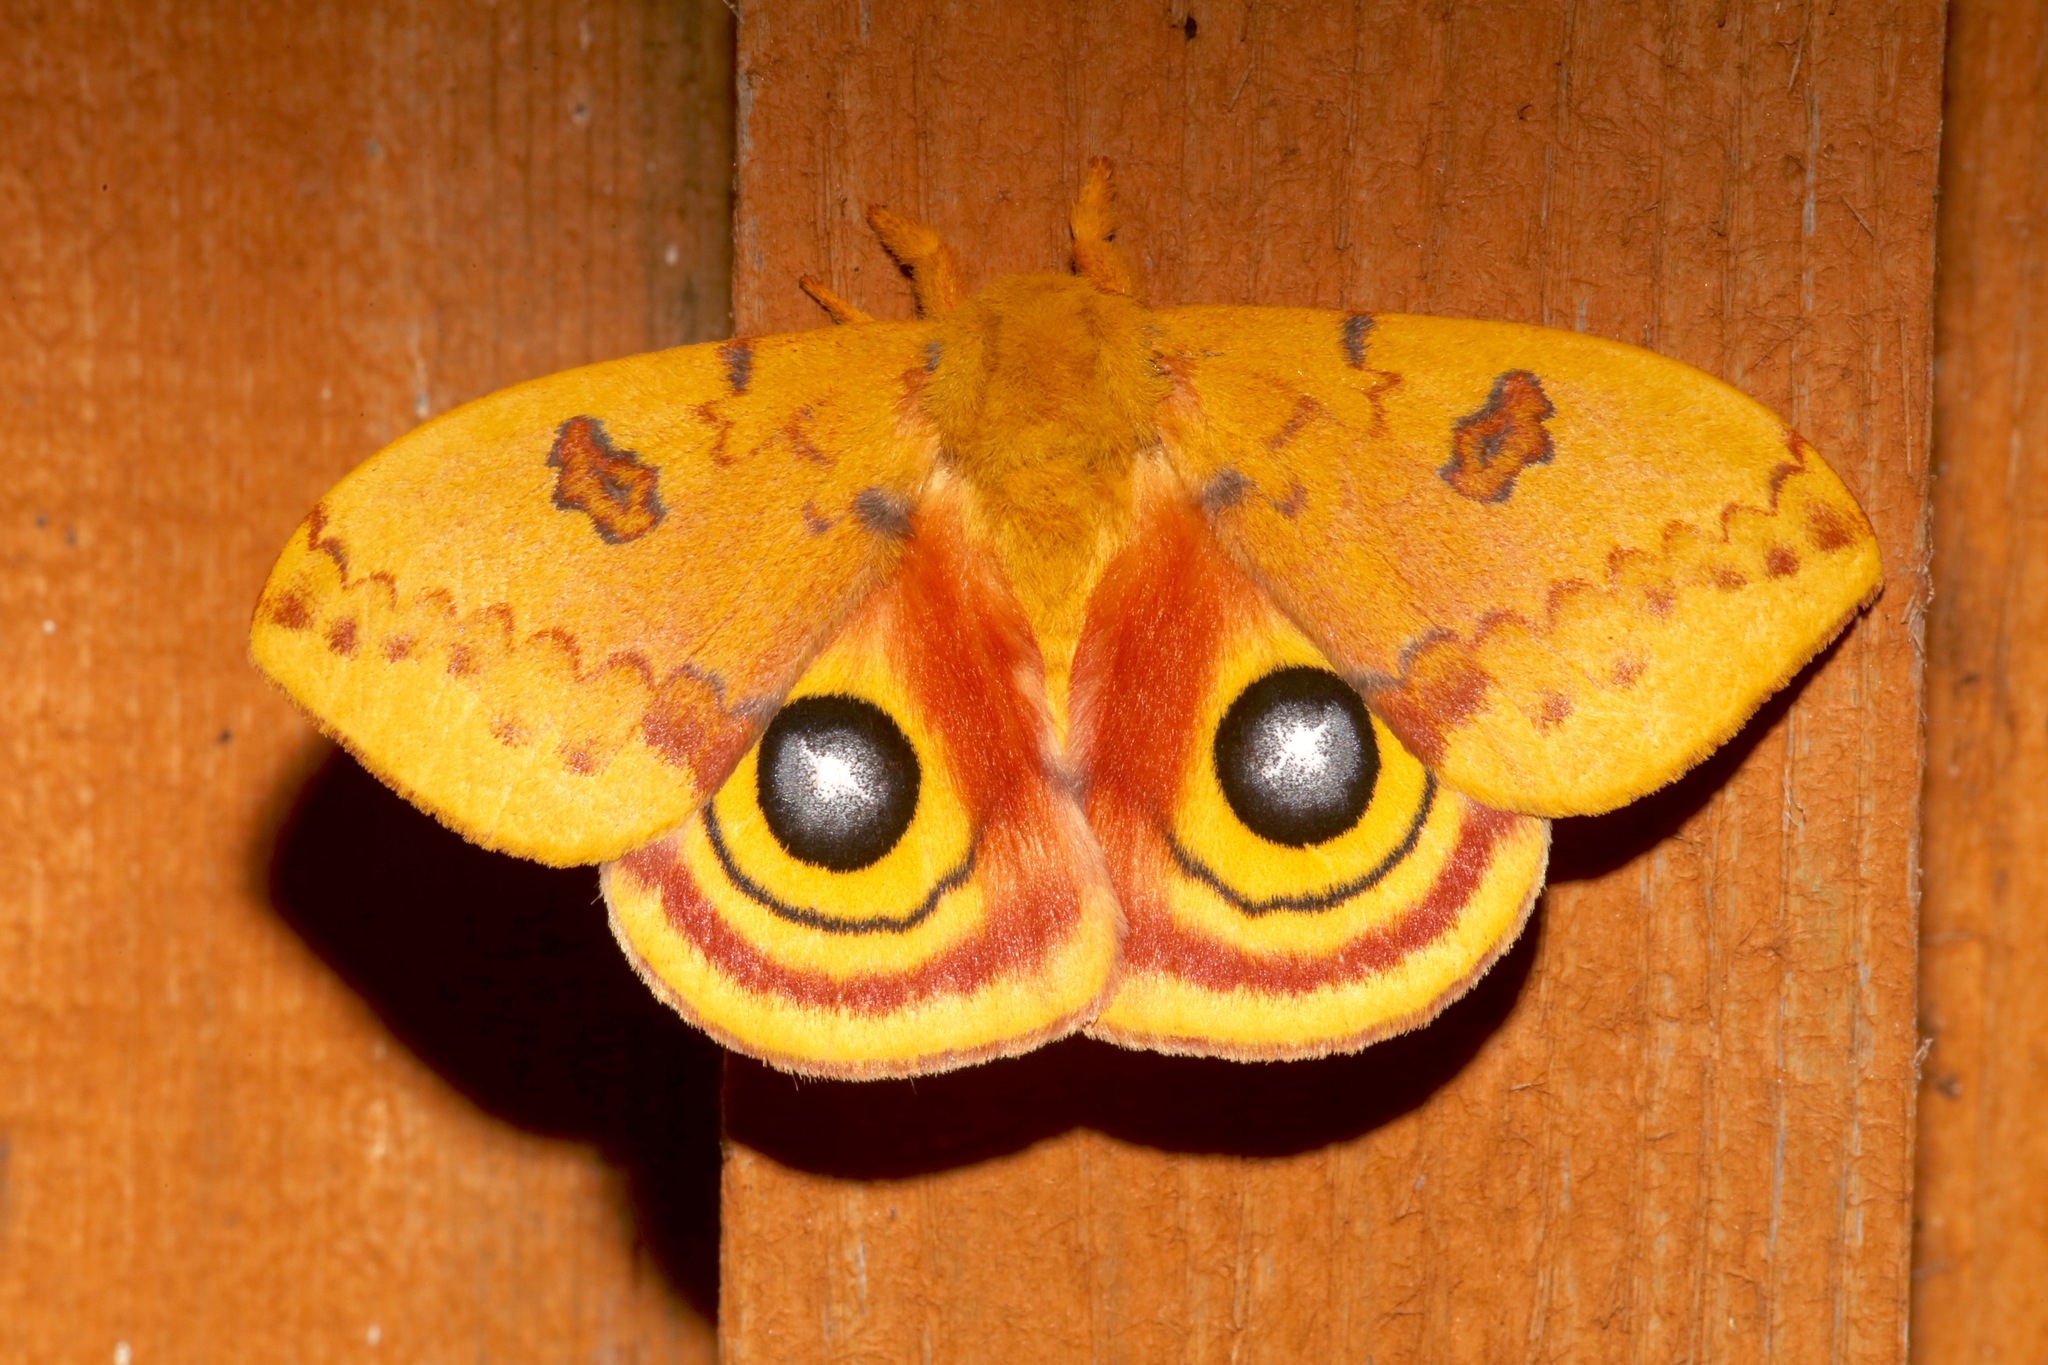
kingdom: Animalia
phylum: Arthropoda
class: Insecta
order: Lepidoptera
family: Saturniidae
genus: Automeris
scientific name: Automeris io
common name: Io moth
